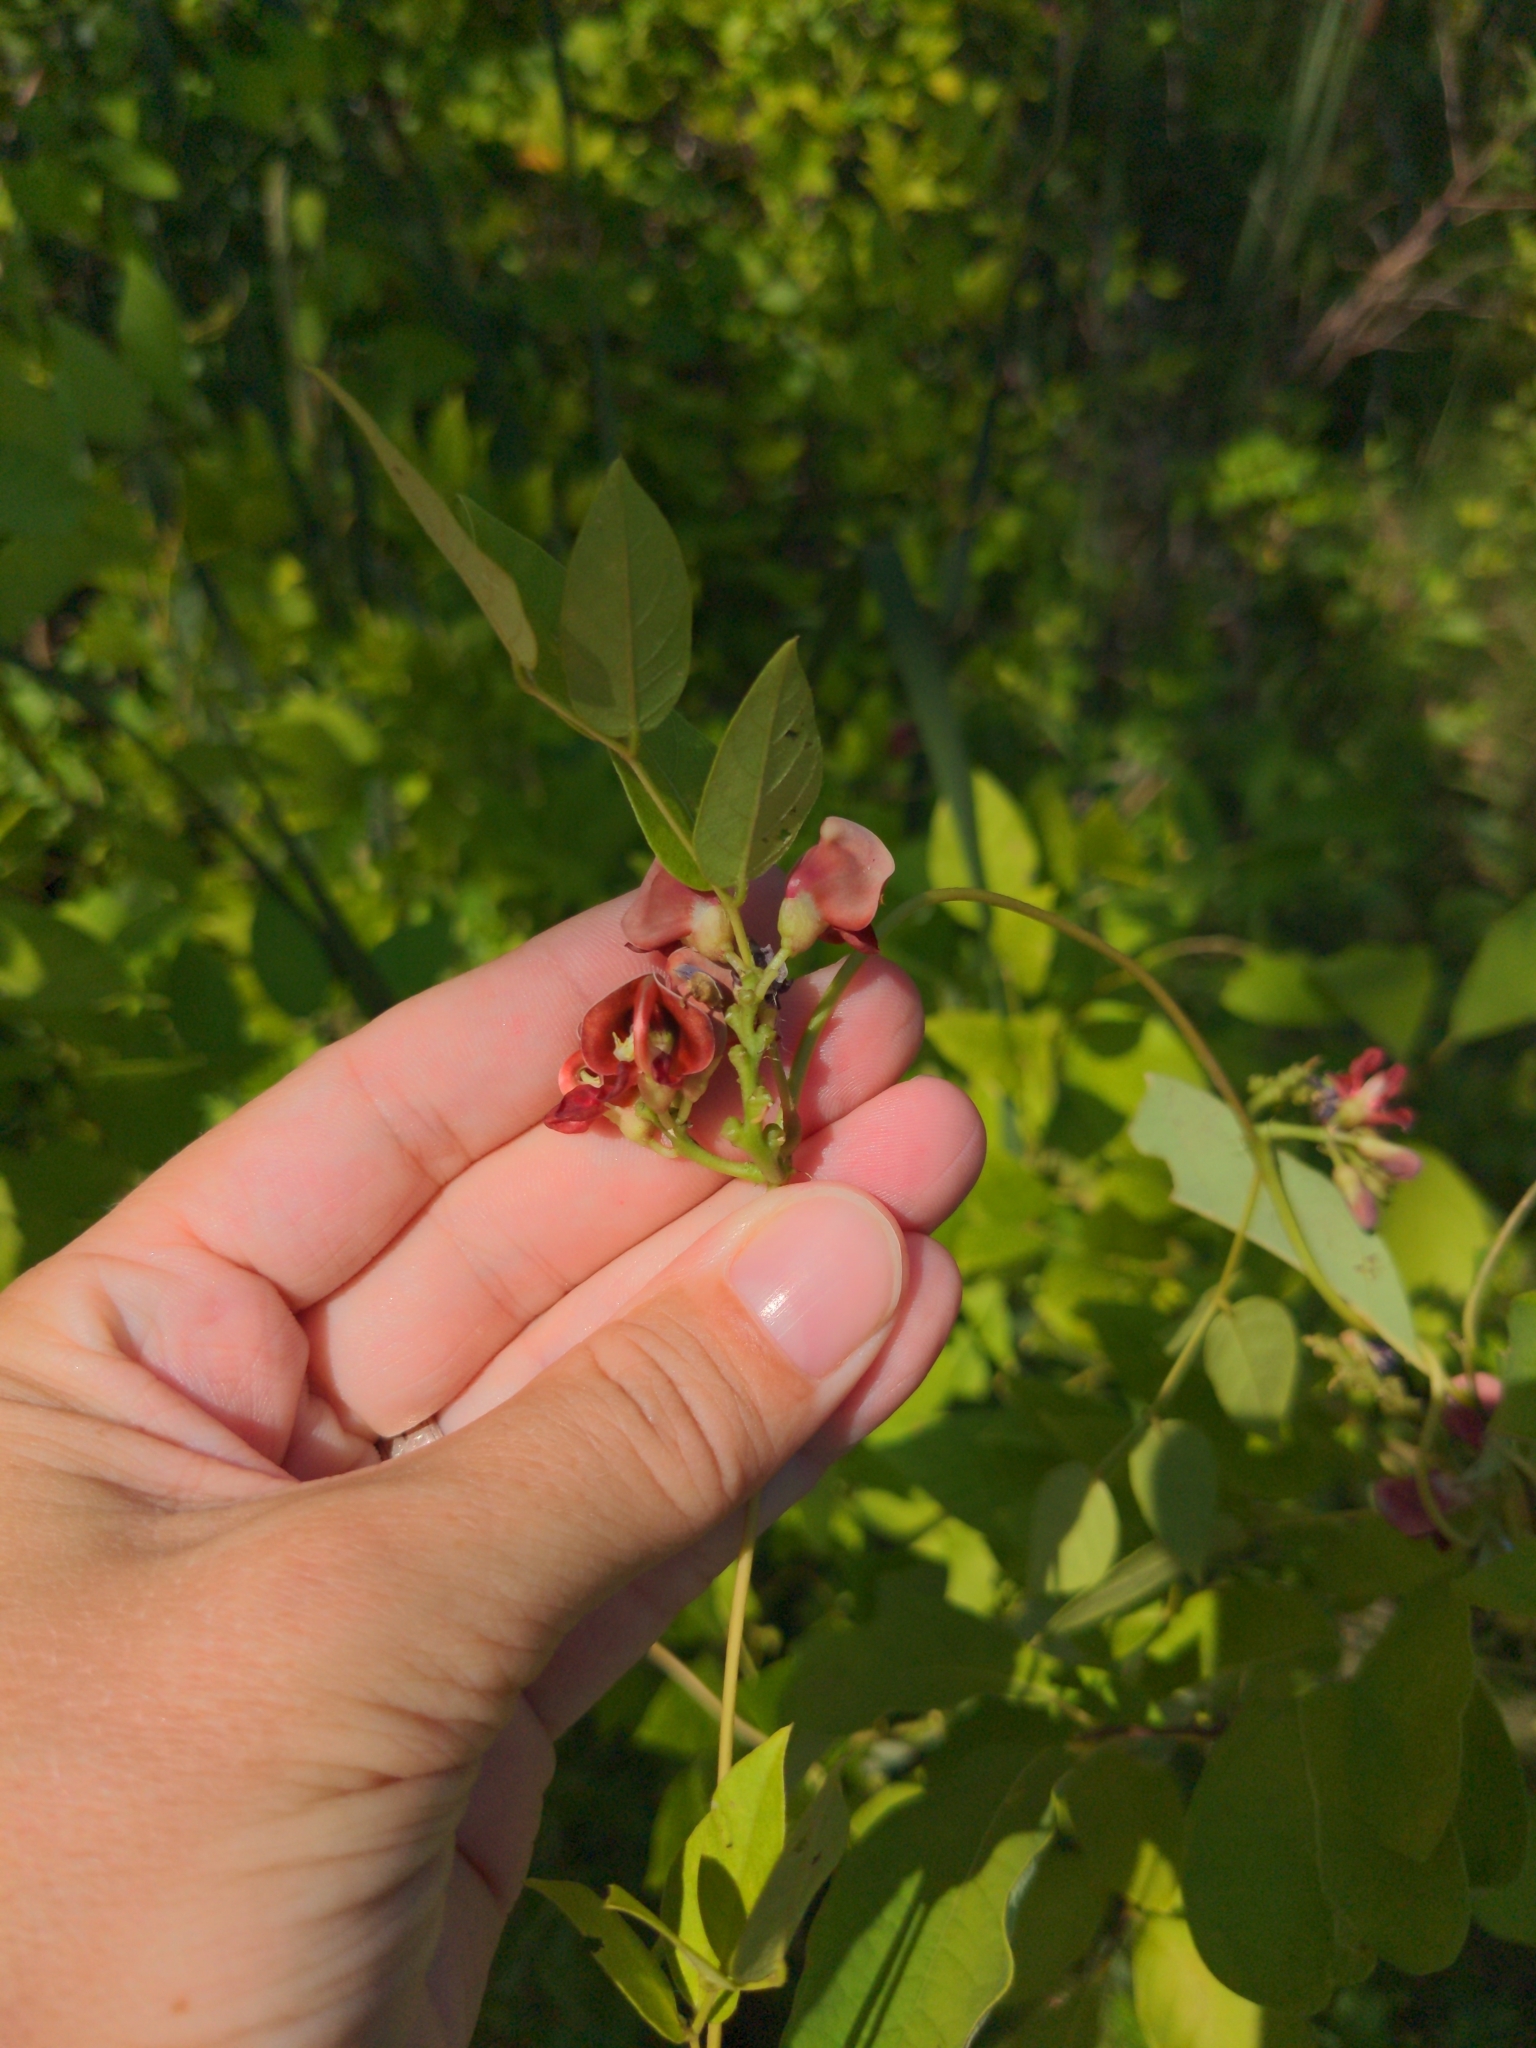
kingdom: Plantae
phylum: Tracheophyta
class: Magnoliopsida
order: Fabales
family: Fabaceae
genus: Apios
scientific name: Apios americana
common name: American potato-bean
